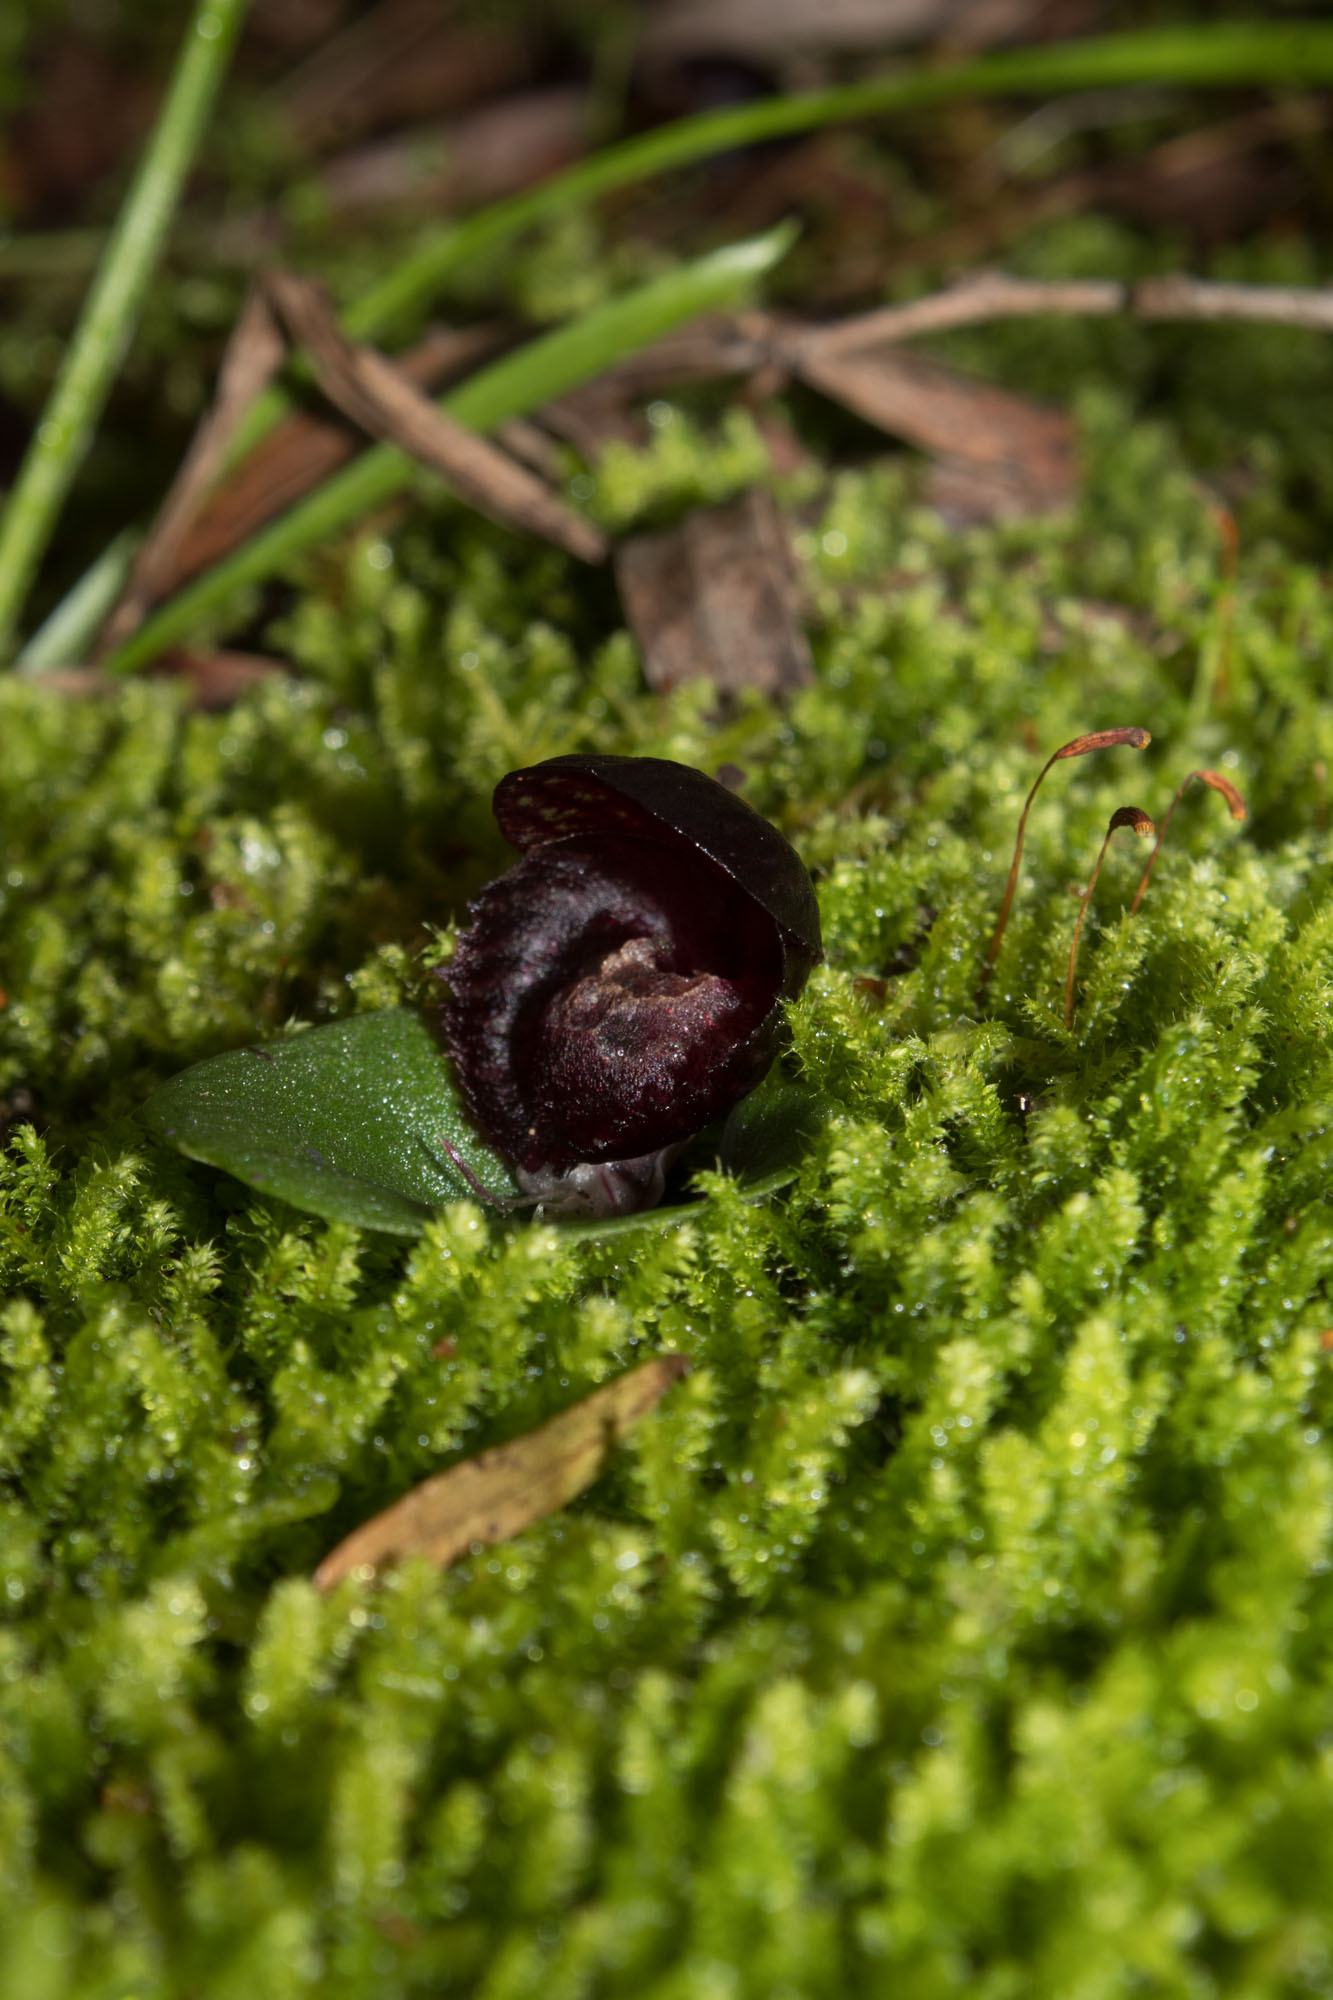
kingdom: Plantae
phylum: Tracheophyta
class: Liliopsida
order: Asparagales
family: Orchidaceae
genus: Corybas
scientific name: Corybas recurvus
